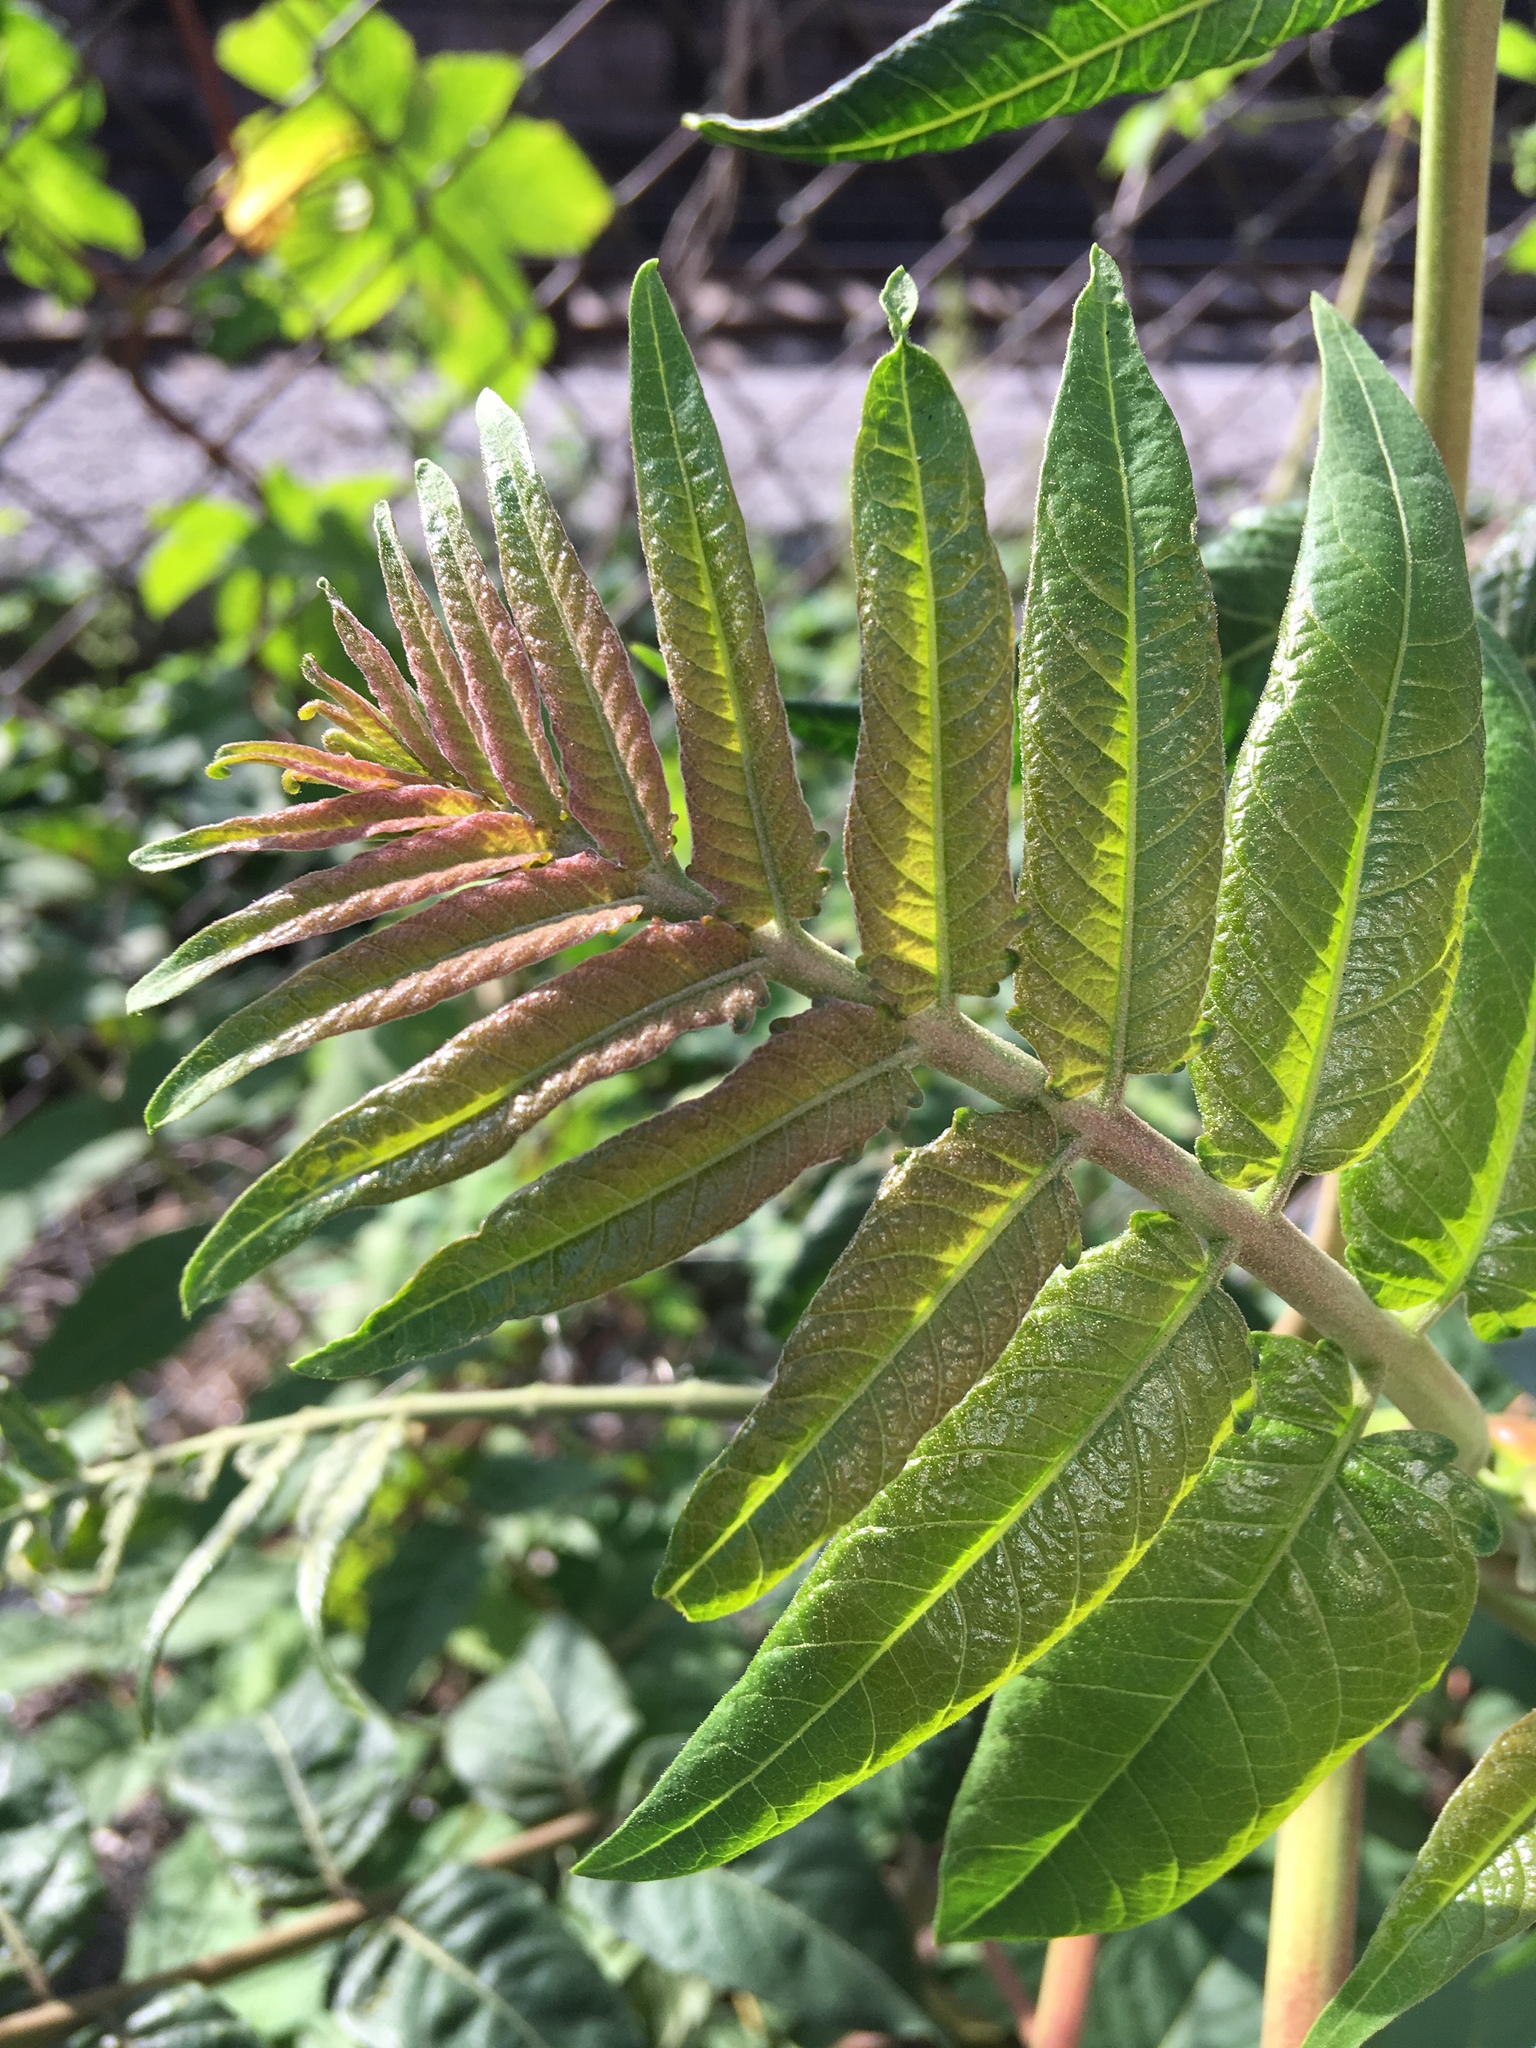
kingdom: Plantae
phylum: Tracheophyta
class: Magnoliopsida
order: Sapindales
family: Simaroubaceae
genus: Ailanthus
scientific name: Ailanthus altissima
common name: Tree-of-heaven
